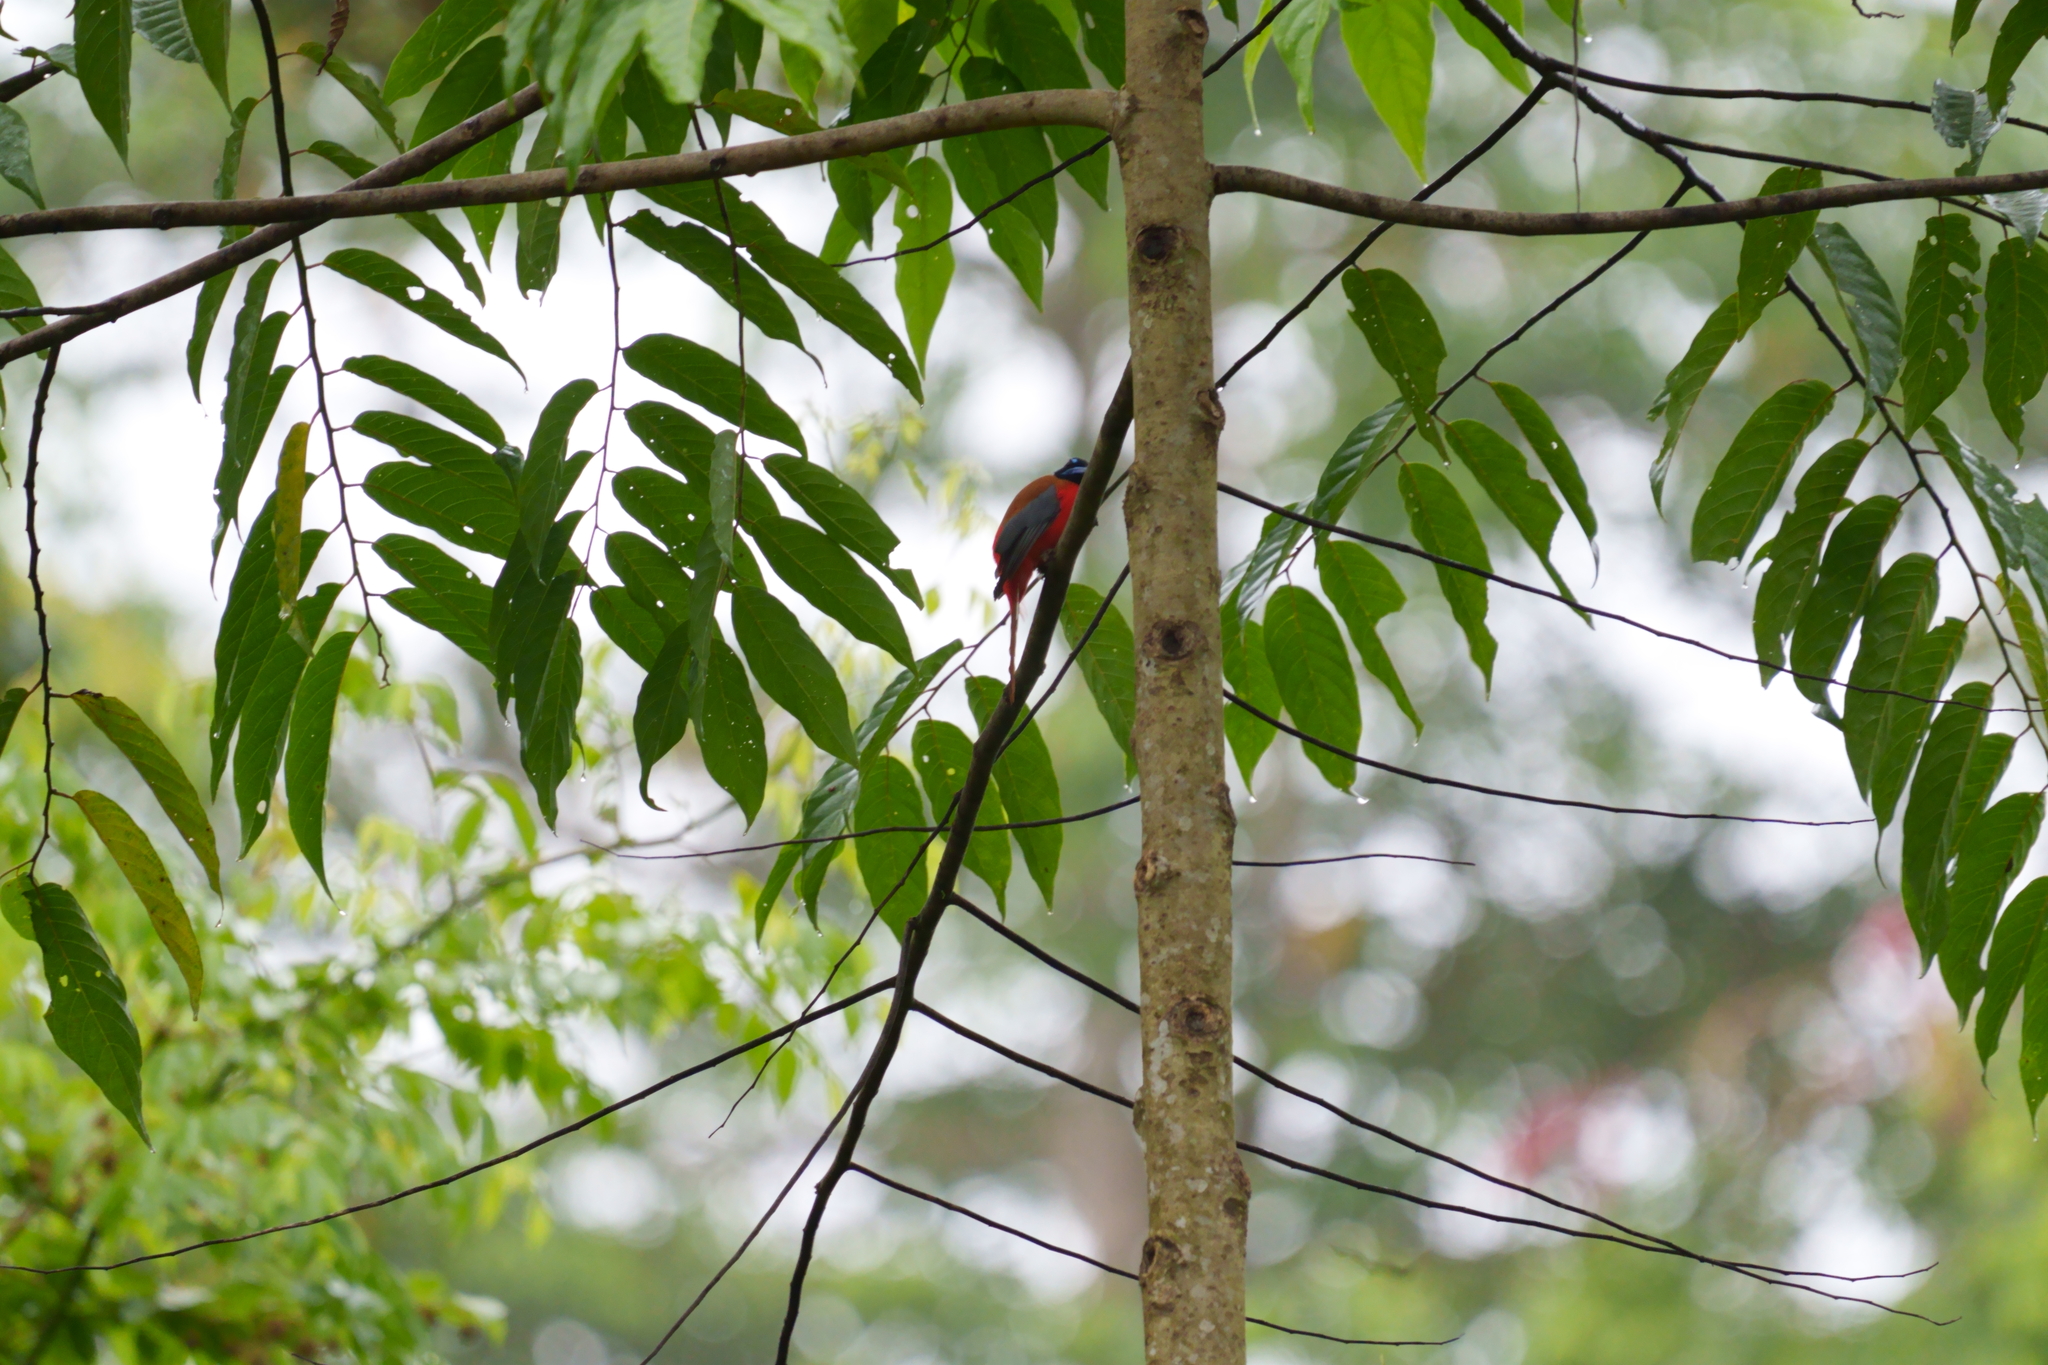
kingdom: Animalia
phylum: Chordata
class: Aves
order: Trogoniformes
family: Trogonidae
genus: Harpactes
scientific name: Harpactes duvaucelii
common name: Scarlet-rumped trogon
